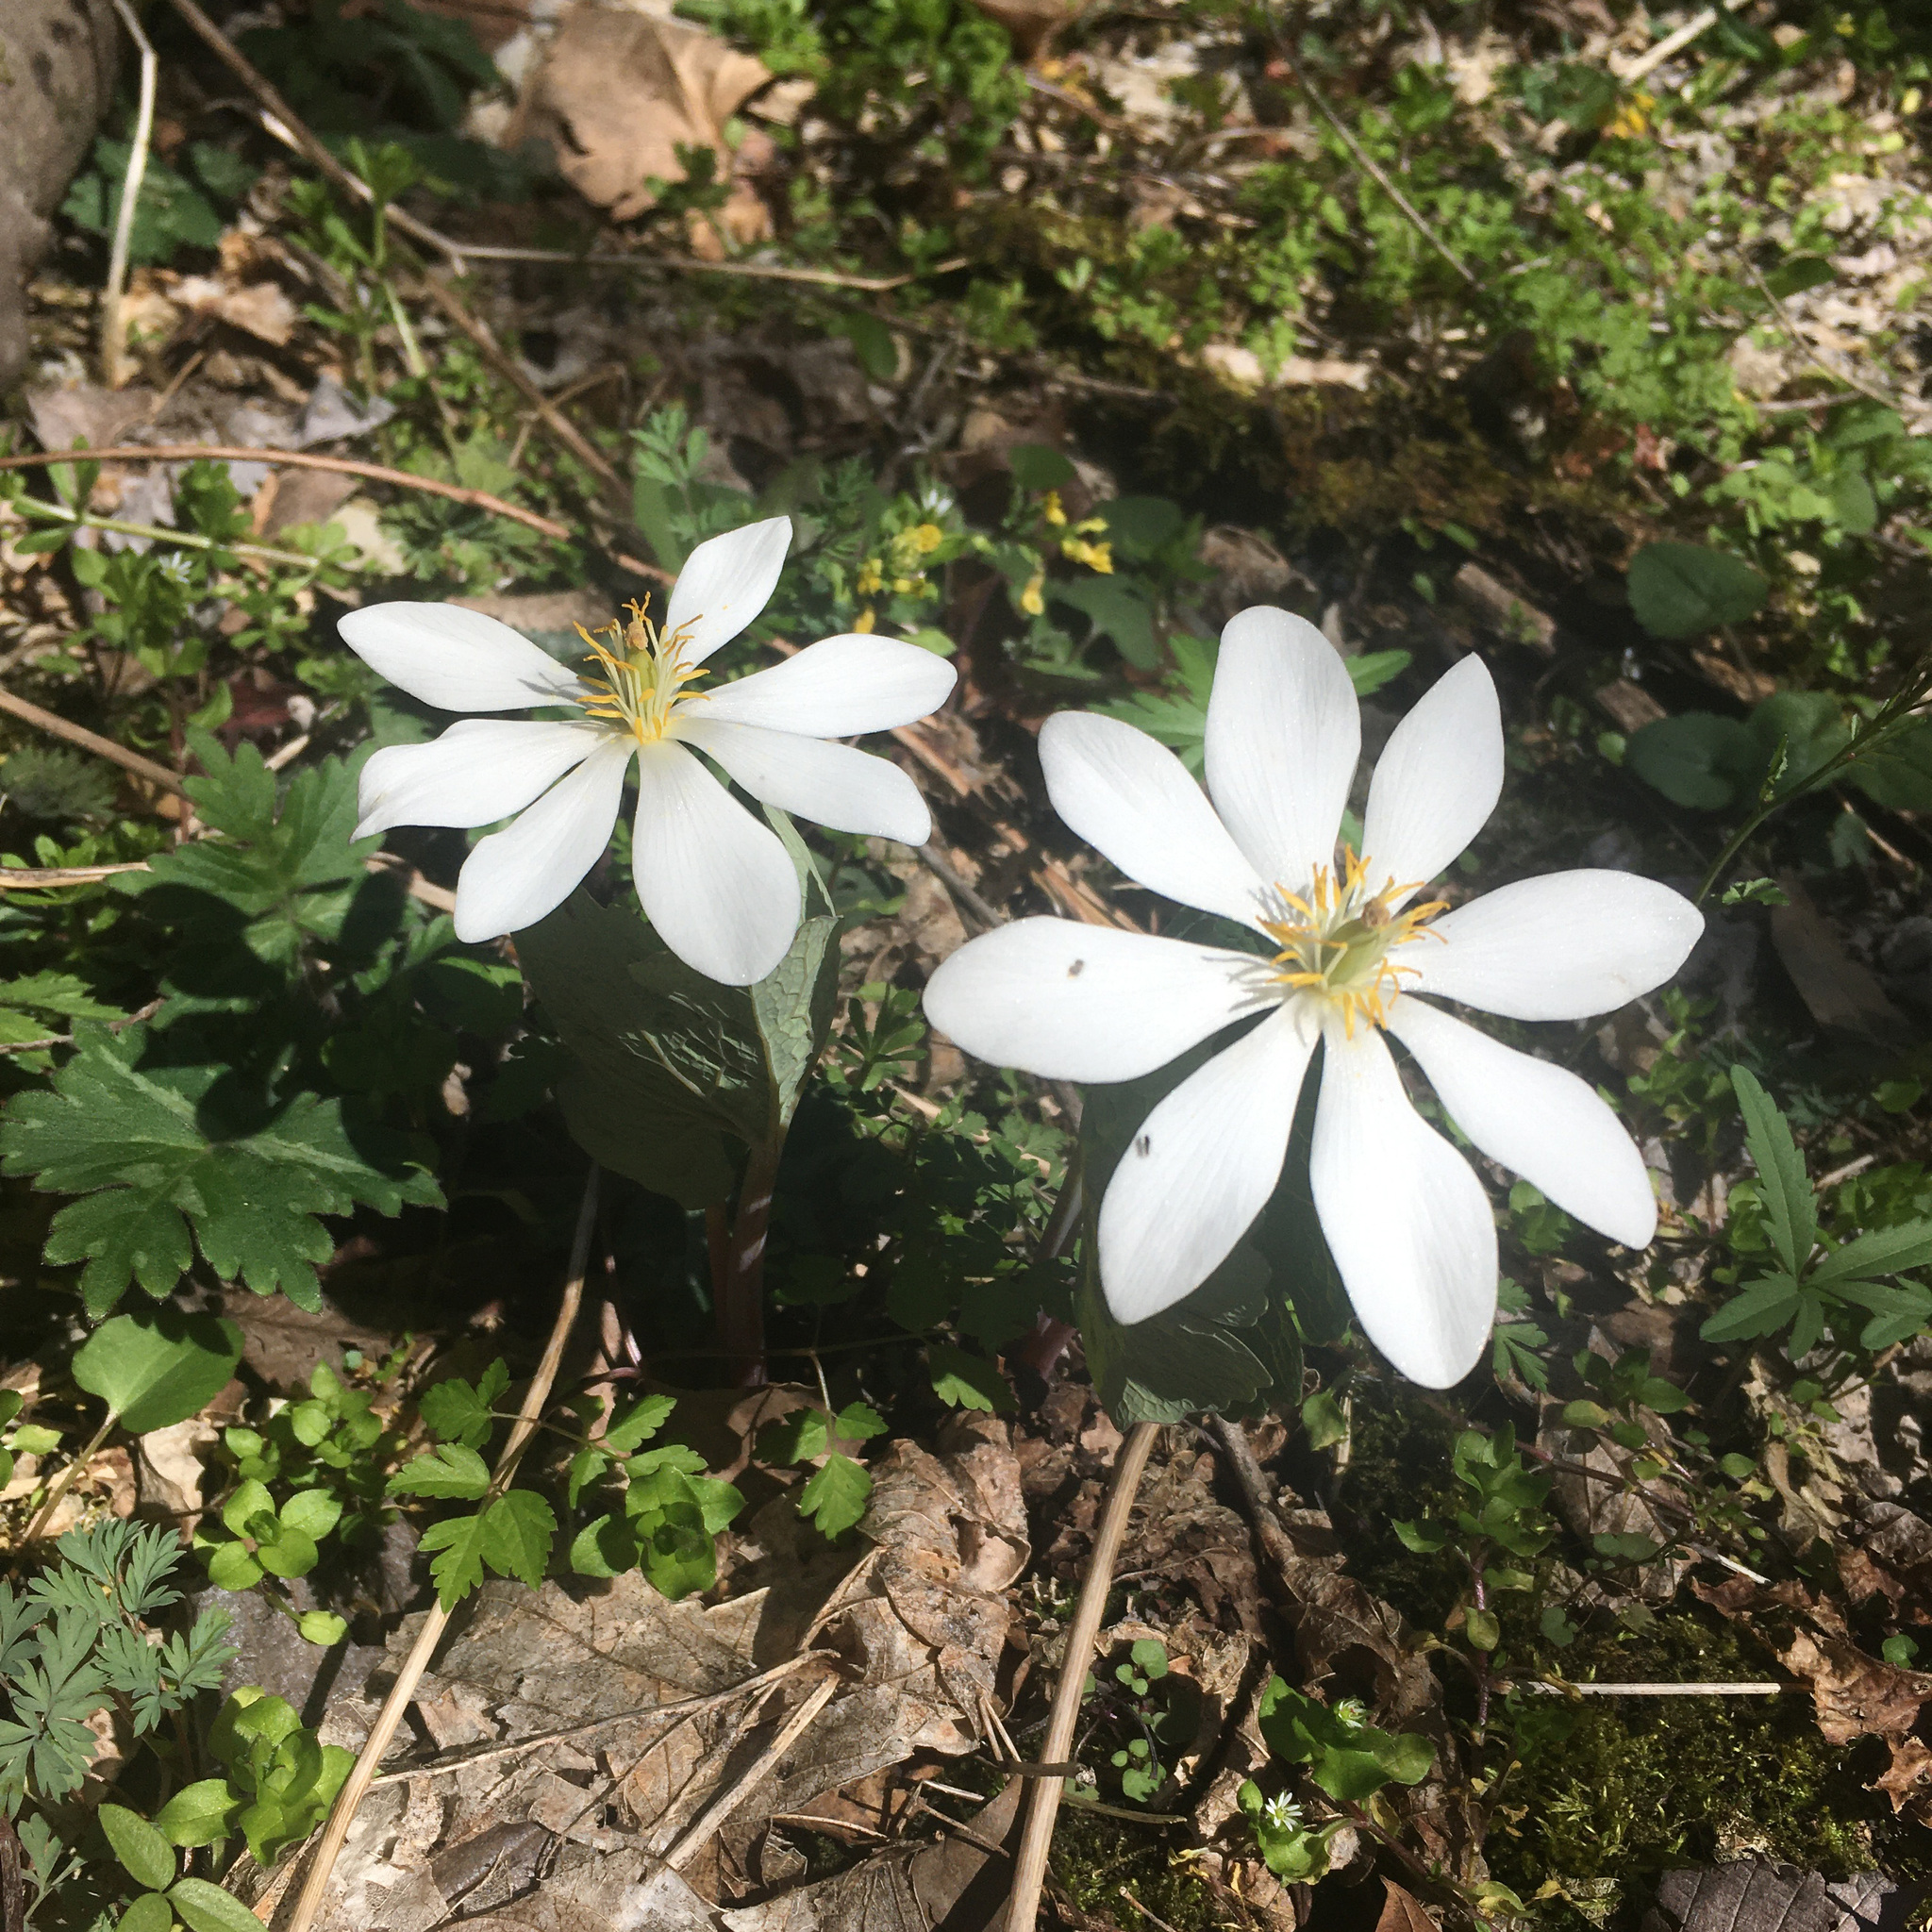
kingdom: Plantae
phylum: Tracheophyta
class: Magnoliopsida
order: Ranunculales
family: Papaveraceae
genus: Sanguinaria
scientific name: Sanguinaria canadensis
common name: Bloodroot
